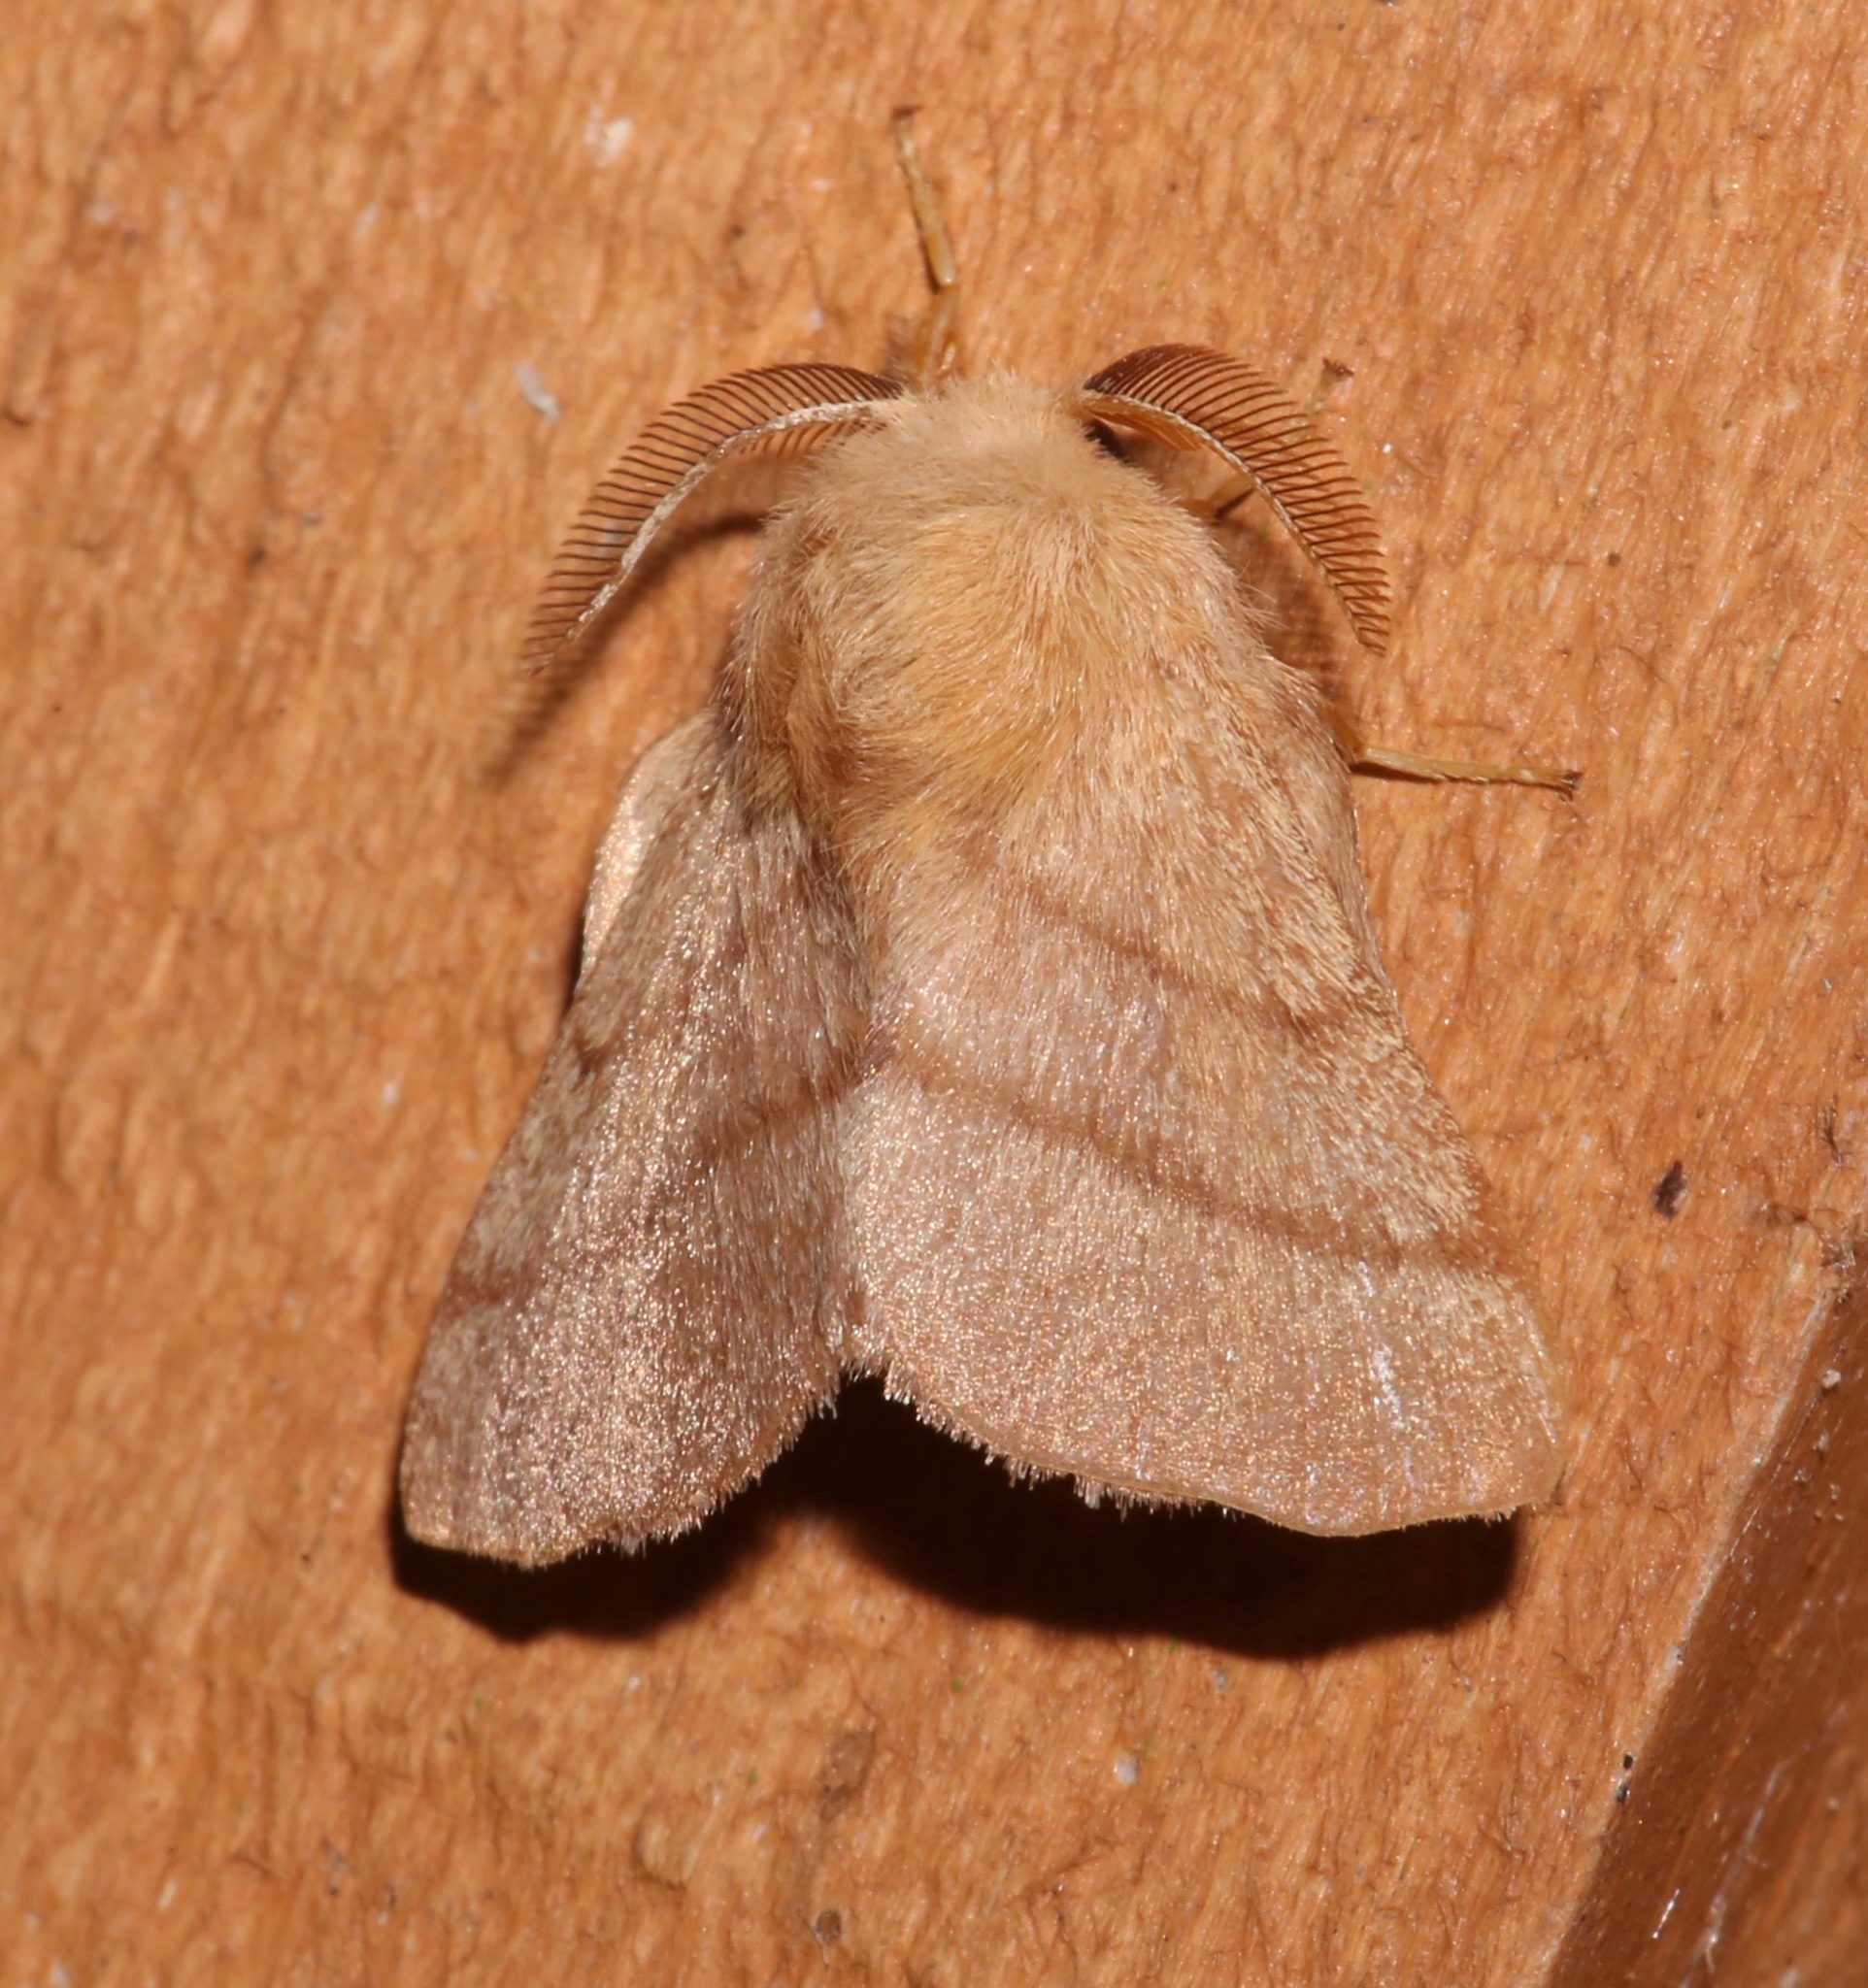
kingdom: Animalia
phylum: Arthropoda
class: Insecta
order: Lepidoptera
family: Lasiocampidae
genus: Malacosoma
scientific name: Malacosoma disstria
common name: Forest tent caterpillar
